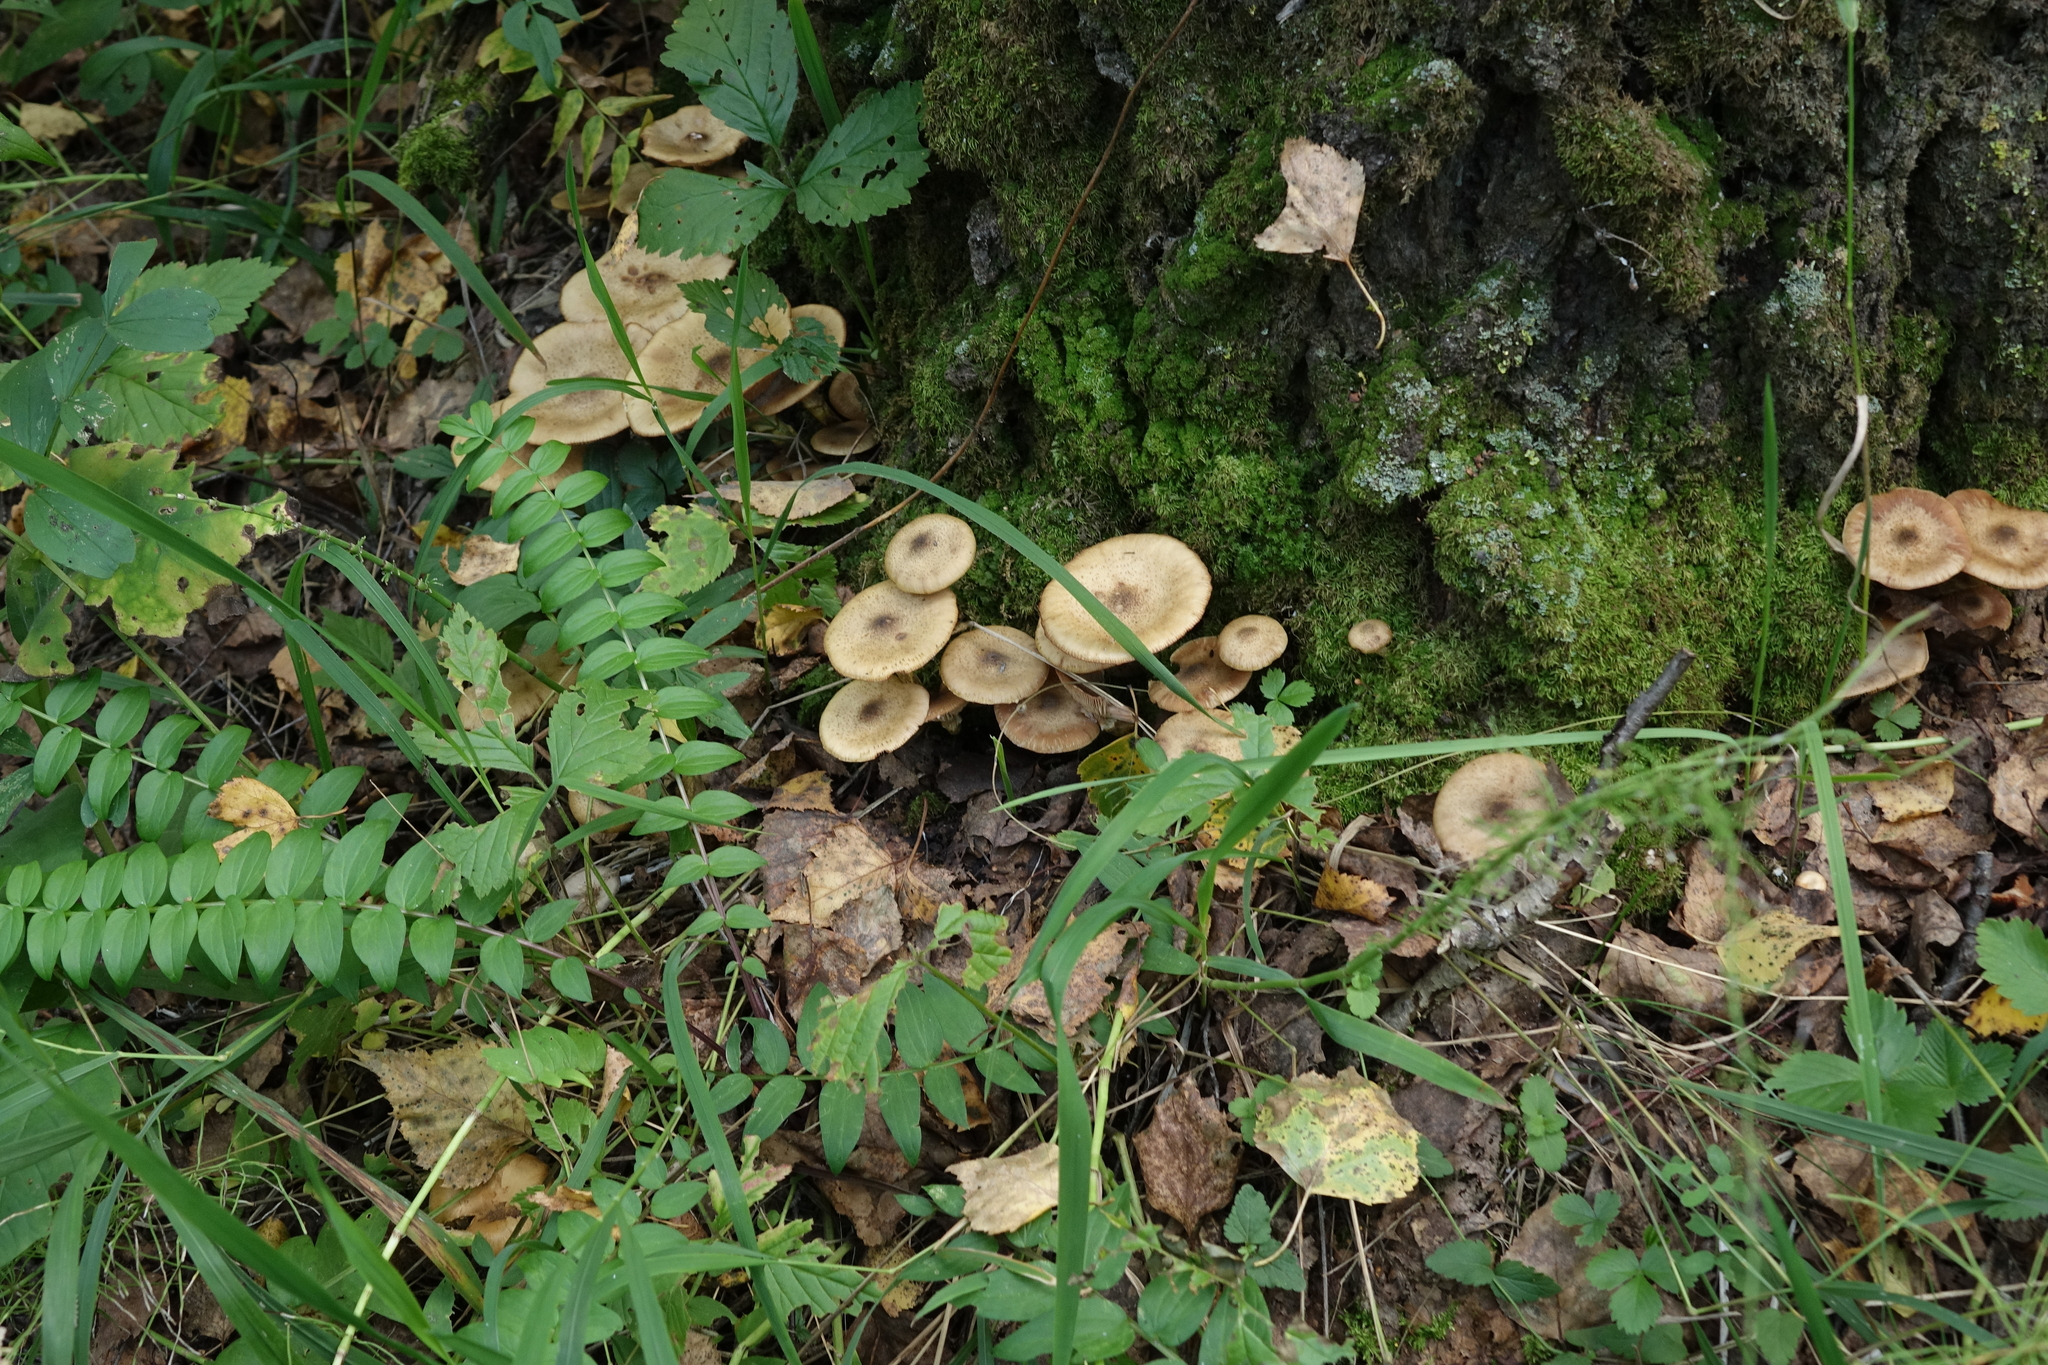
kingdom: Plantae
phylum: Tracheophyta
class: Magnoliopsida
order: Ericales
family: Polemoniaceae
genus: Polemonium
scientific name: Polemonium caeruleum
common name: Jacob's-ladder
